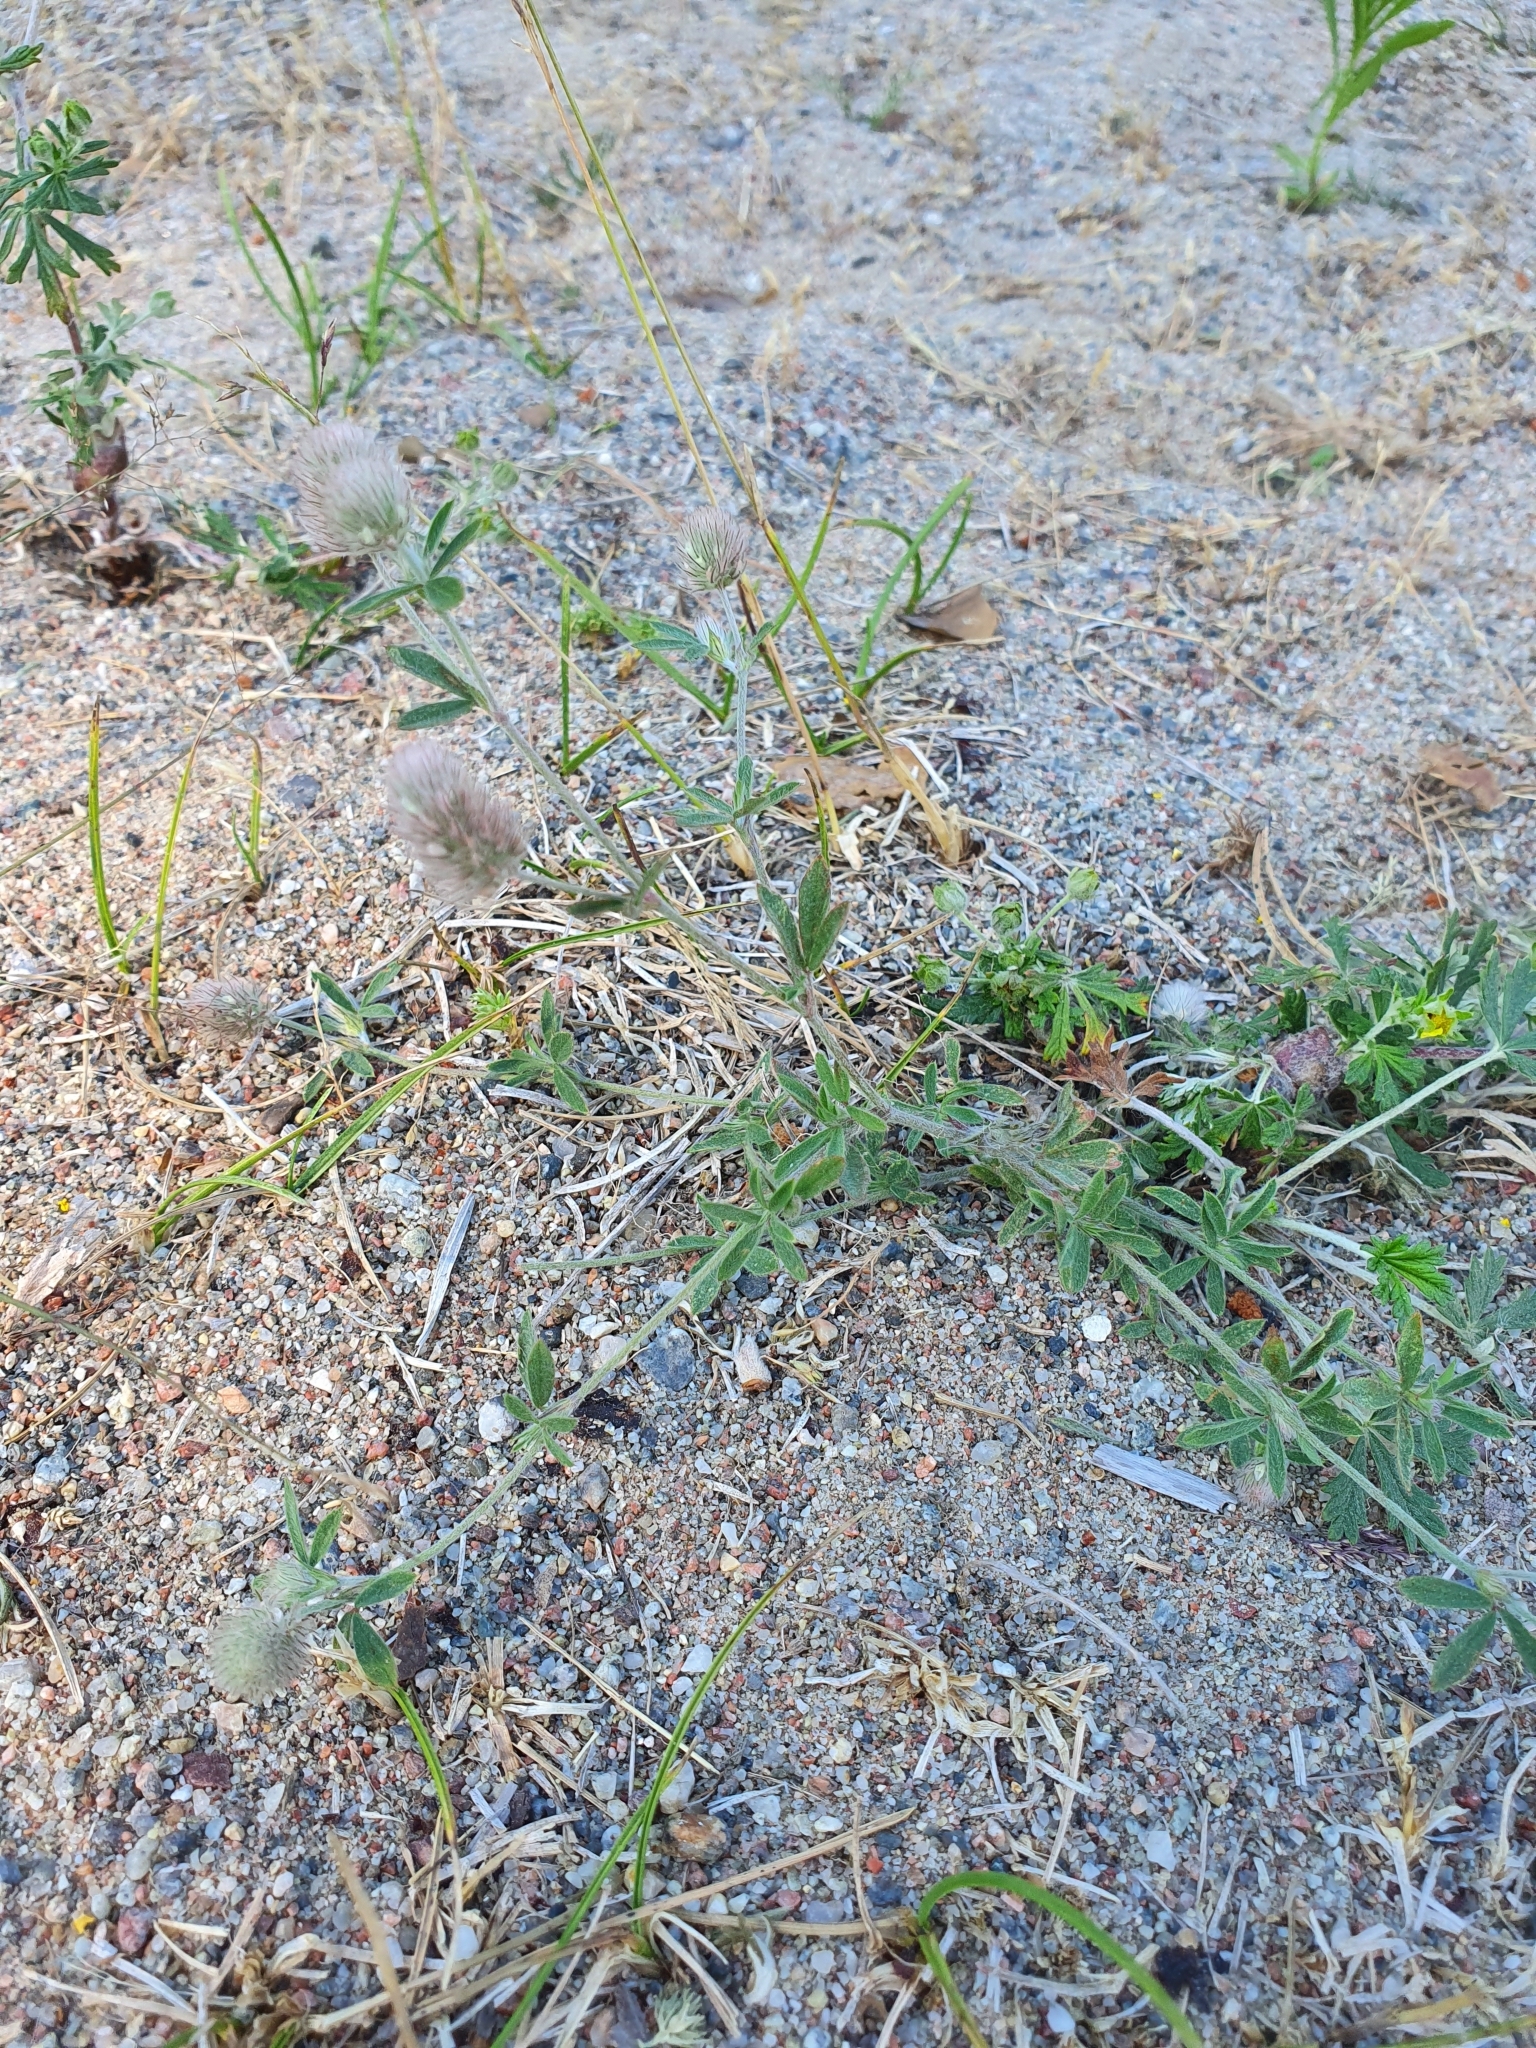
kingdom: Plantae
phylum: Tracheophyta
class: Magnoliopsida
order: Fabales
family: Fabaceae
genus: Trifolium
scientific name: Trifolium arvense
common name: Hare's-foot clover
